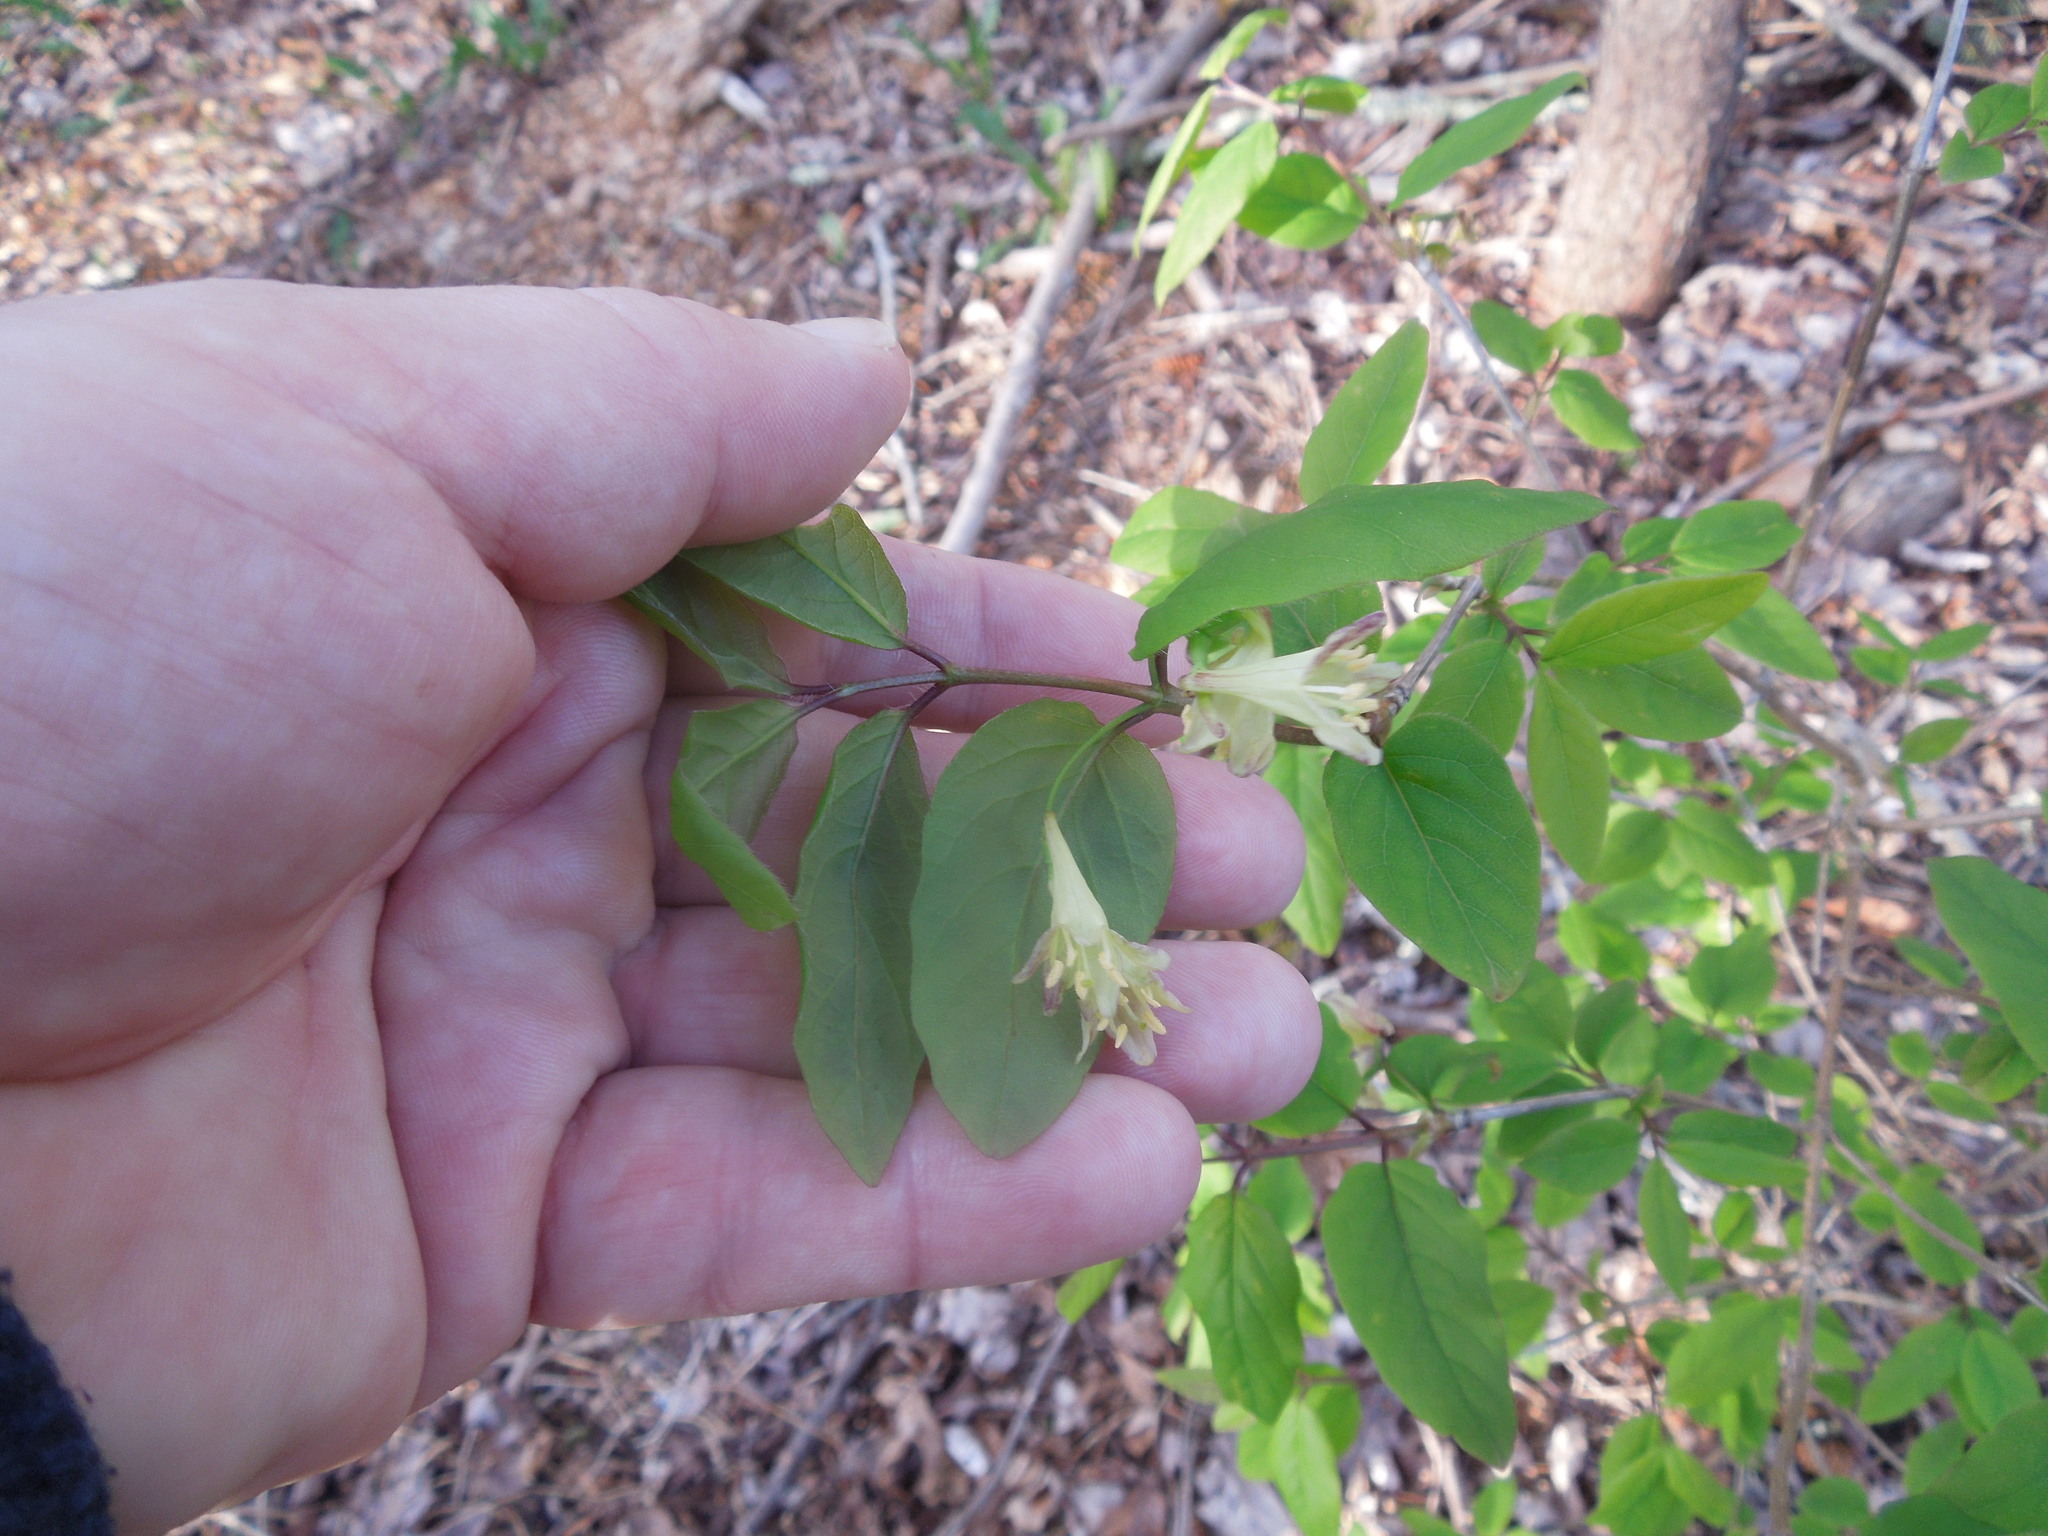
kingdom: Plantae
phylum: Tracheophyta
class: Magnoliopsida
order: Dipsacales
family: Caprifoliaceae
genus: Lonicera
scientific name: Lonicera canadensis
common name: American fly-honeysuckle
